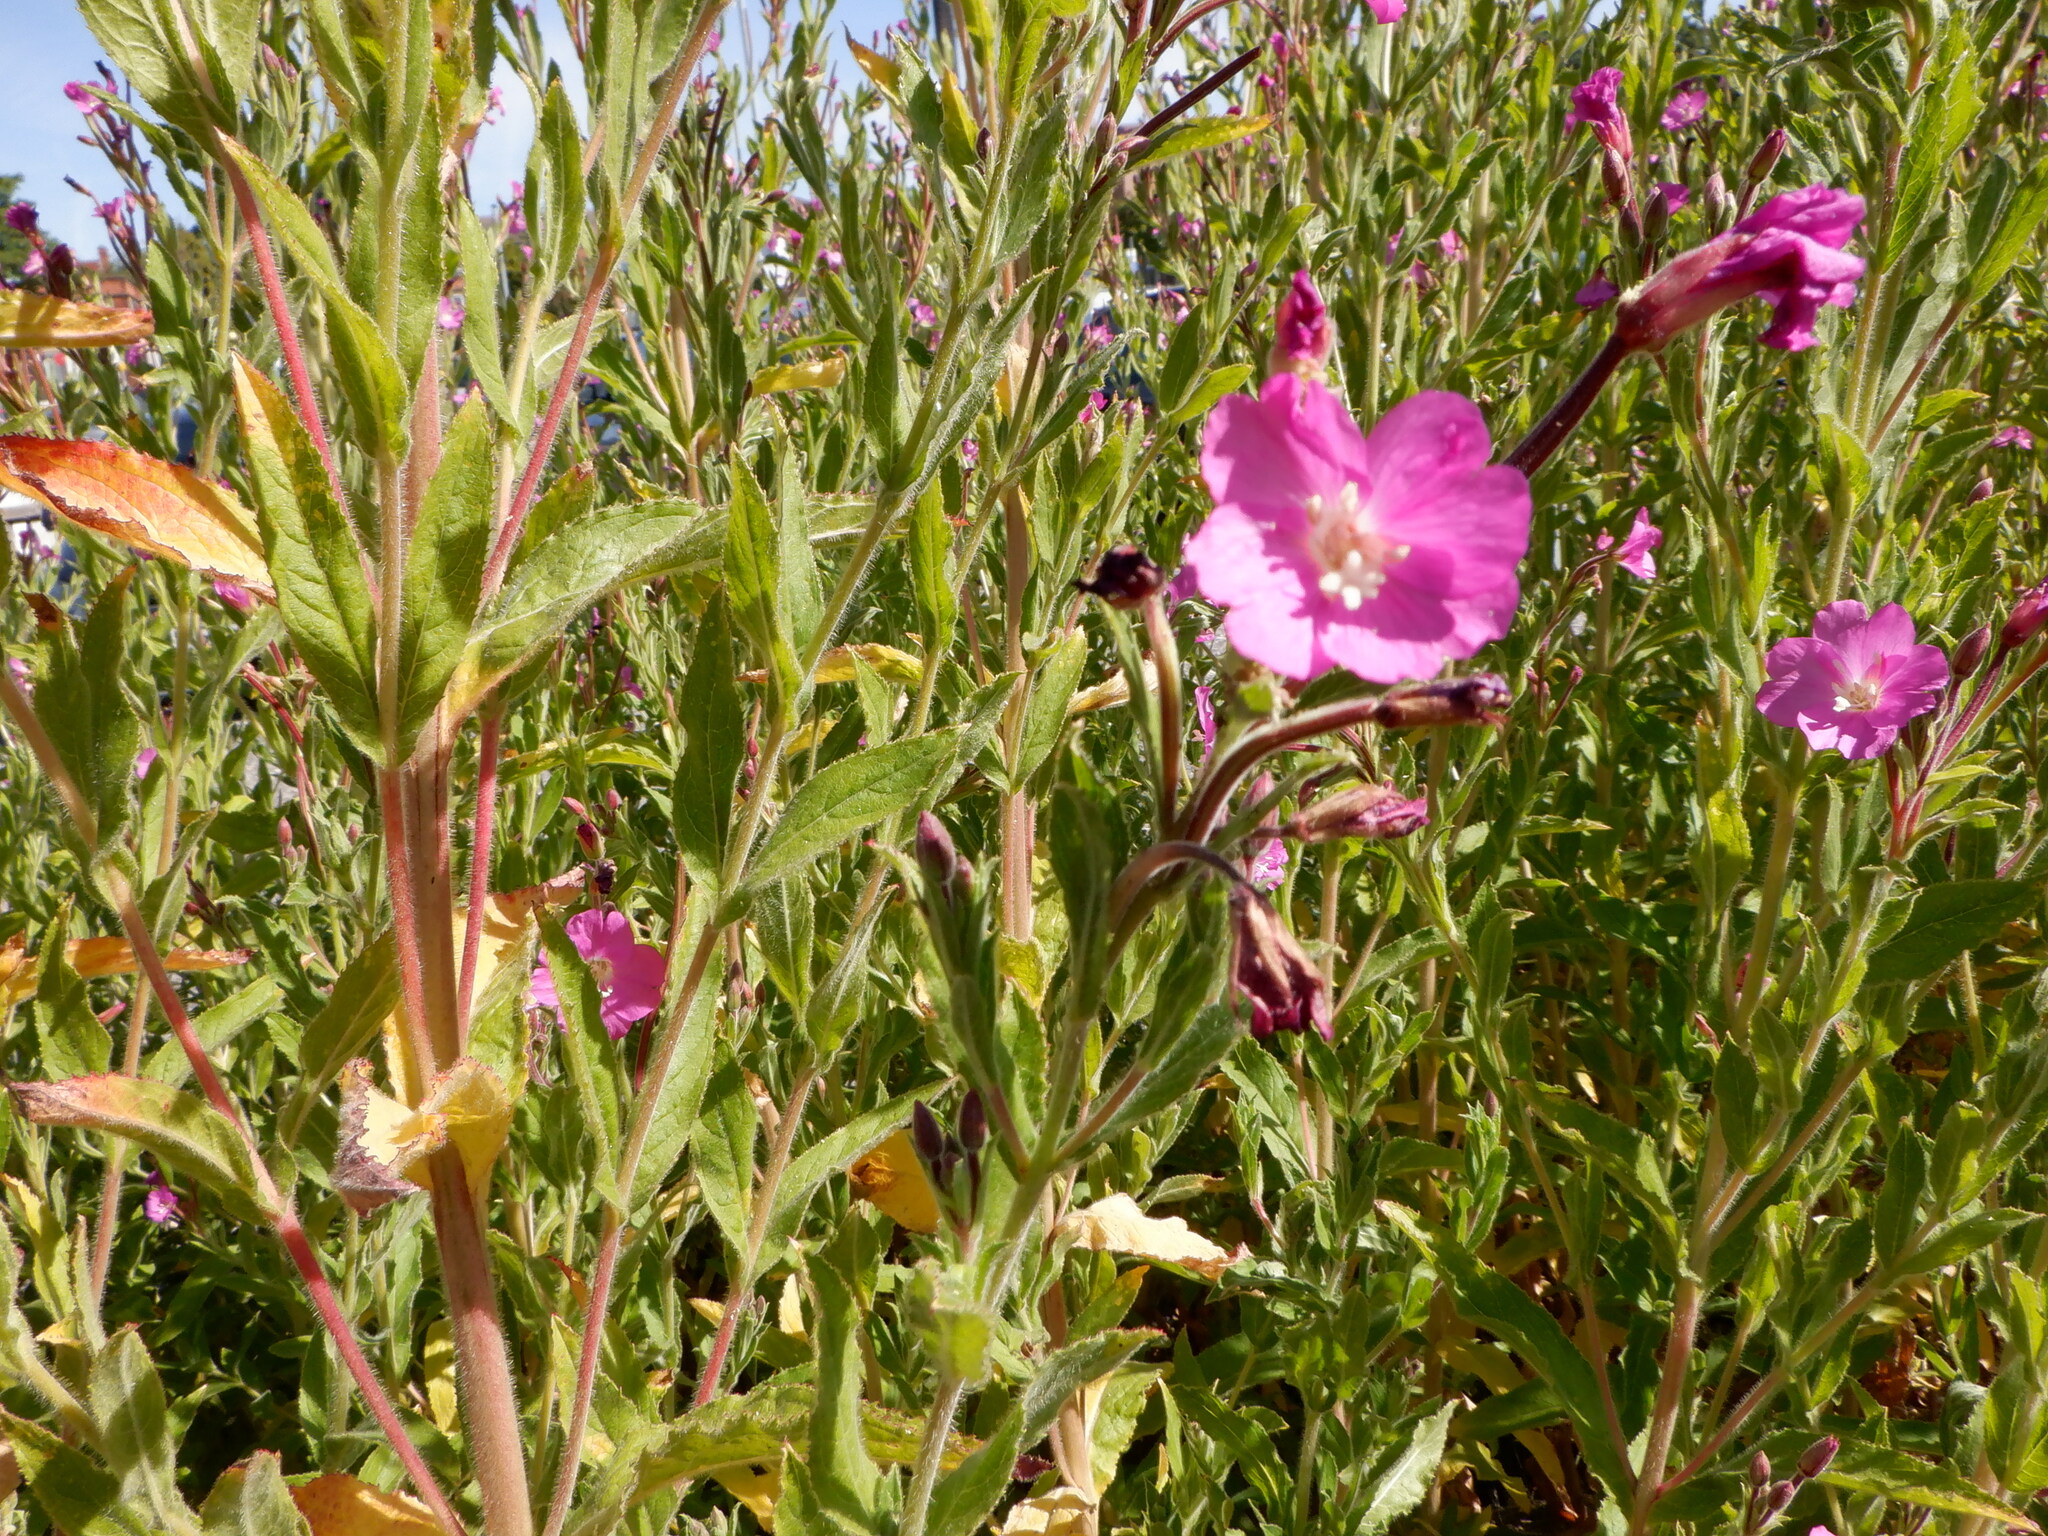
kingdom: Plantae
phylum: Tracheophyta
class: Magnoliopsida
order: Myrtales
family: Onagraceae
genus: Epilobium
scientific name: Epilobium hirsutum
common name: Great willowherb
